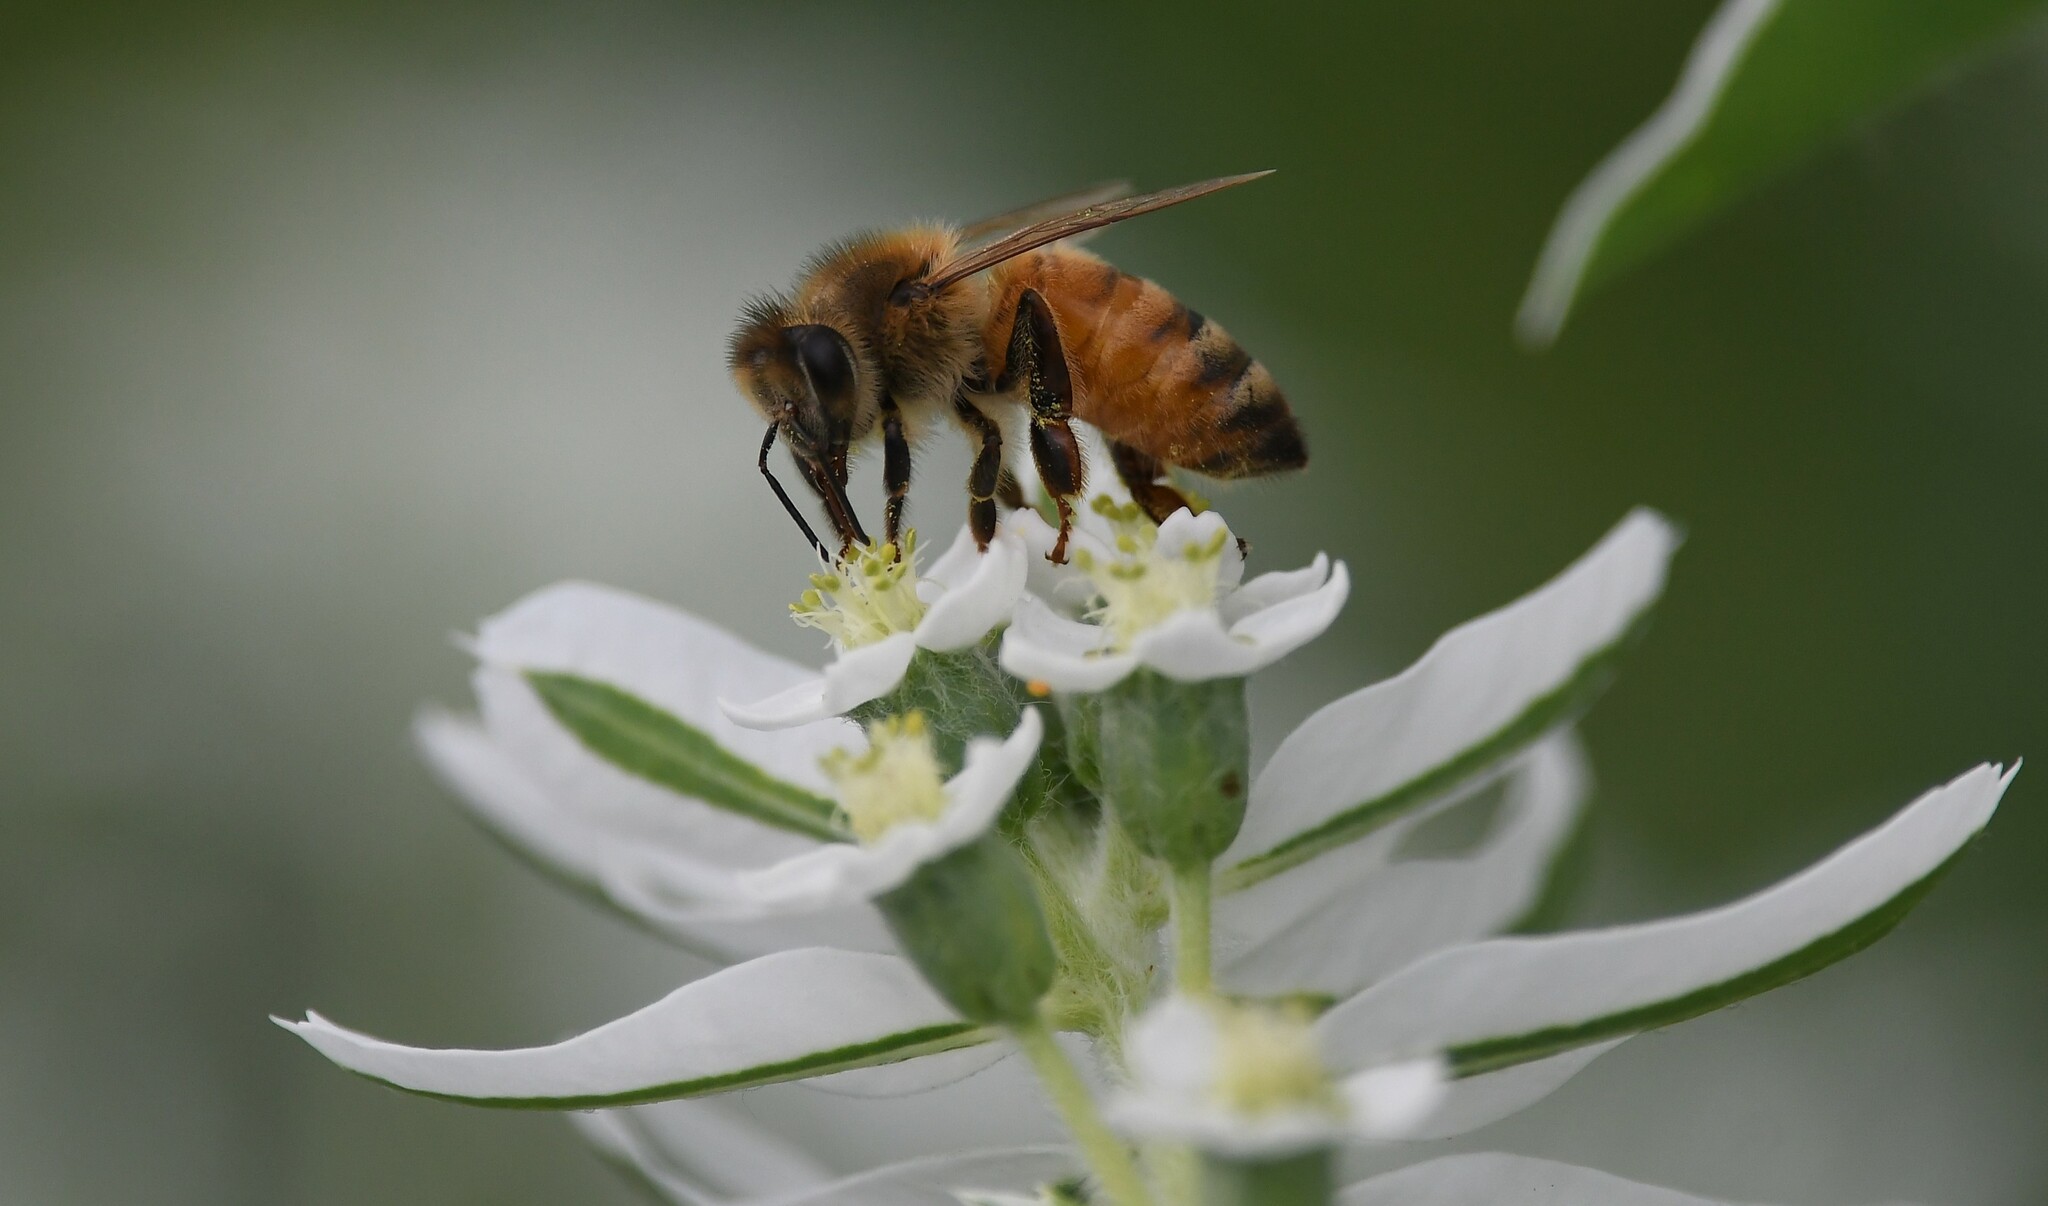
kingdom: Animalia
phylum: Arthropoda
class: Insecta
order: Hymenoptera
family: Apidae
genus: Apis
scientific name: Apis mellifera
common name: Honey bee
